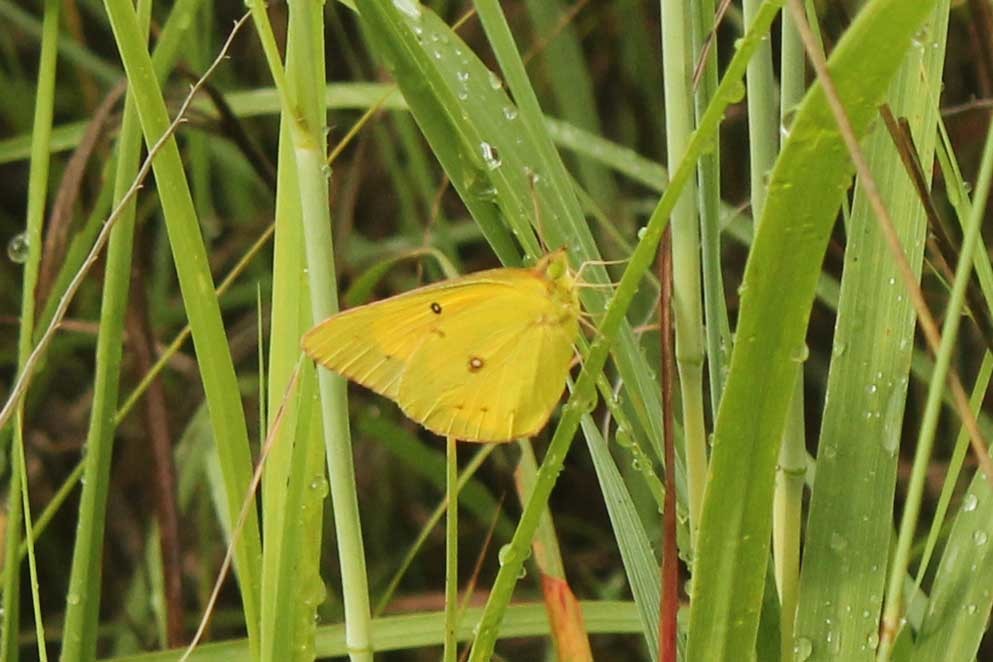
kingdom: Animalia
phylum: Arthropoda
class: Insecta
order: Lepidoptera
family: Pieridae
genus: Colias
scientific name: Colias eurytheme
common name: Alfalfa butterfly
